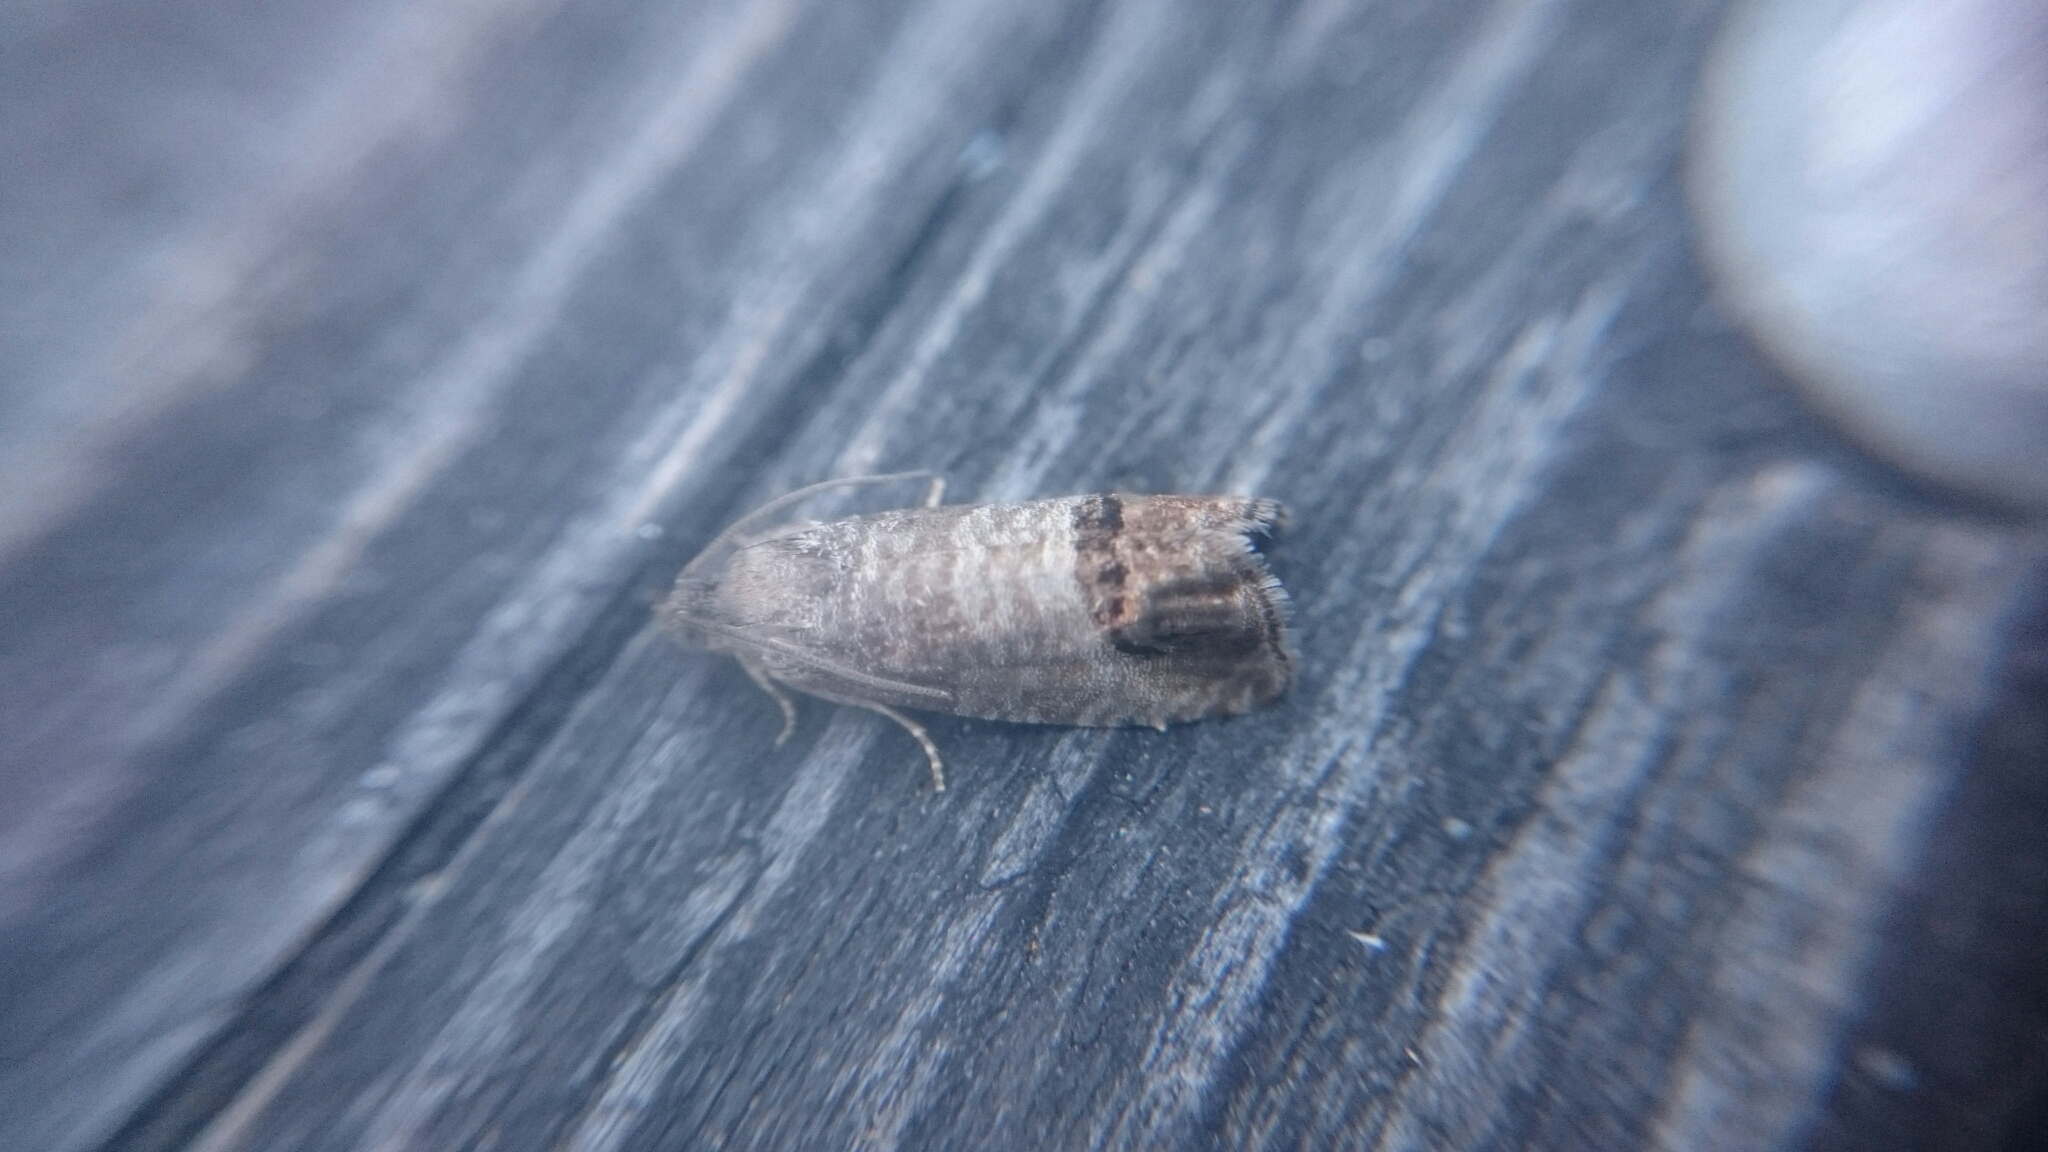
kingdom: Animalia
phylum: Arthropoda
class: Insecta
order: Lepidoptera
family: Tortricidae
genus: Cydia
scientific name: Cydia pomonella
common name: Codling moth
